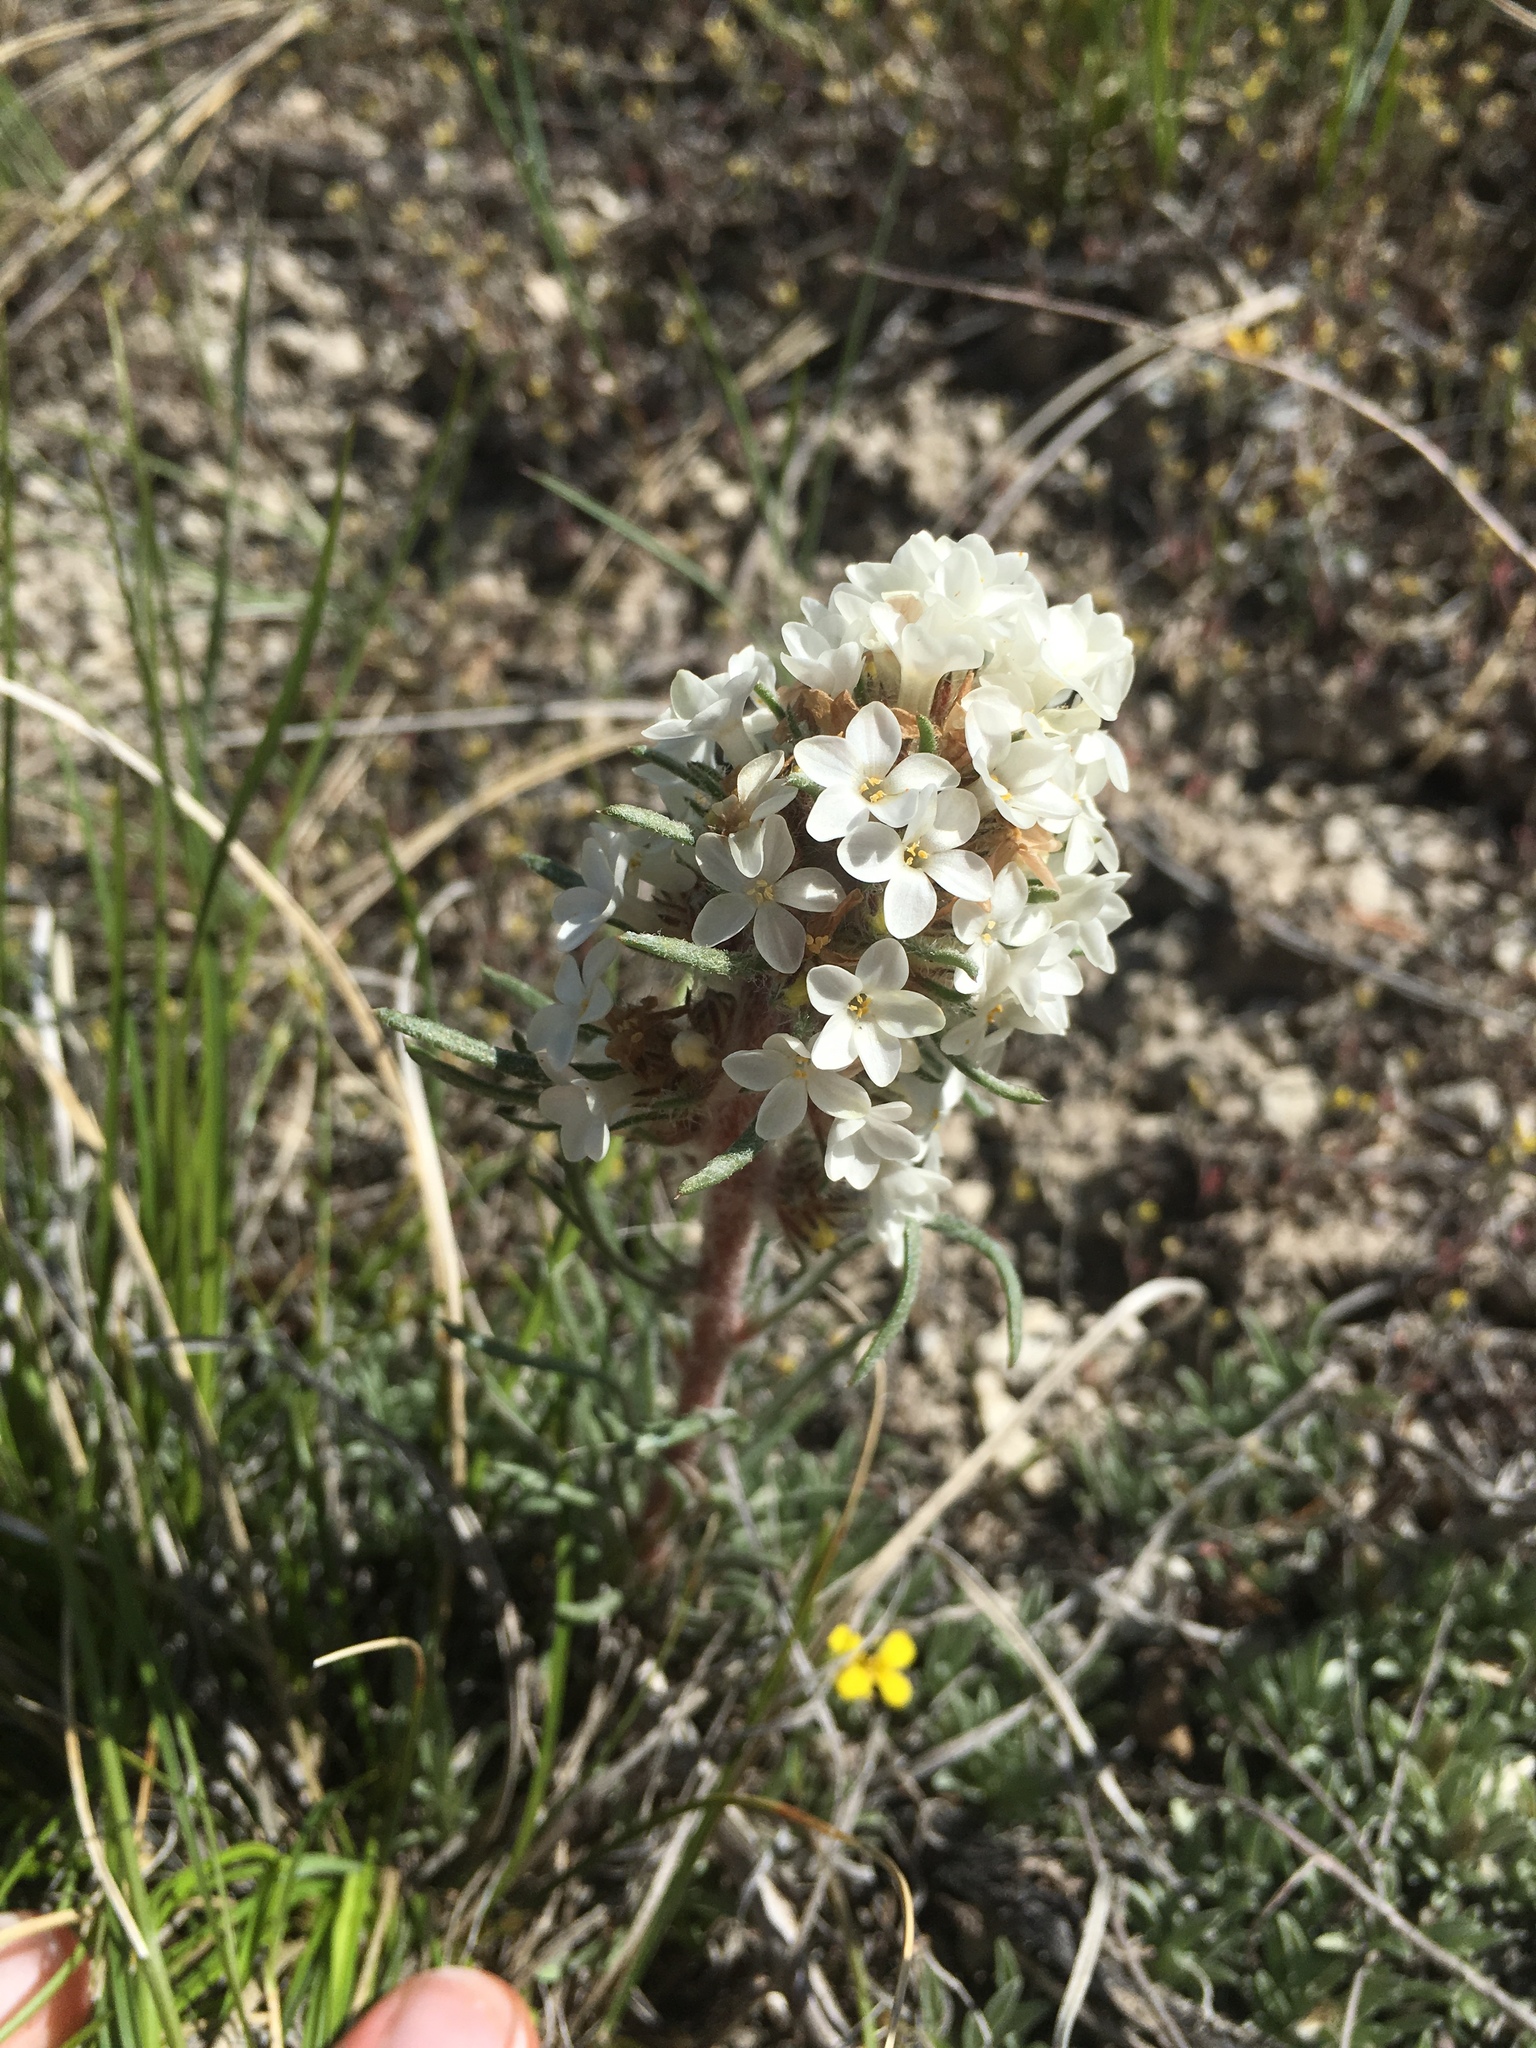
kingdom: Plantae
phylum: Tracheophyta
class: Magnoliopsida
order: Ericales
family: Polemoniaceae
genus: Ipomopsis
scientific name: Ipomopsis spicata
